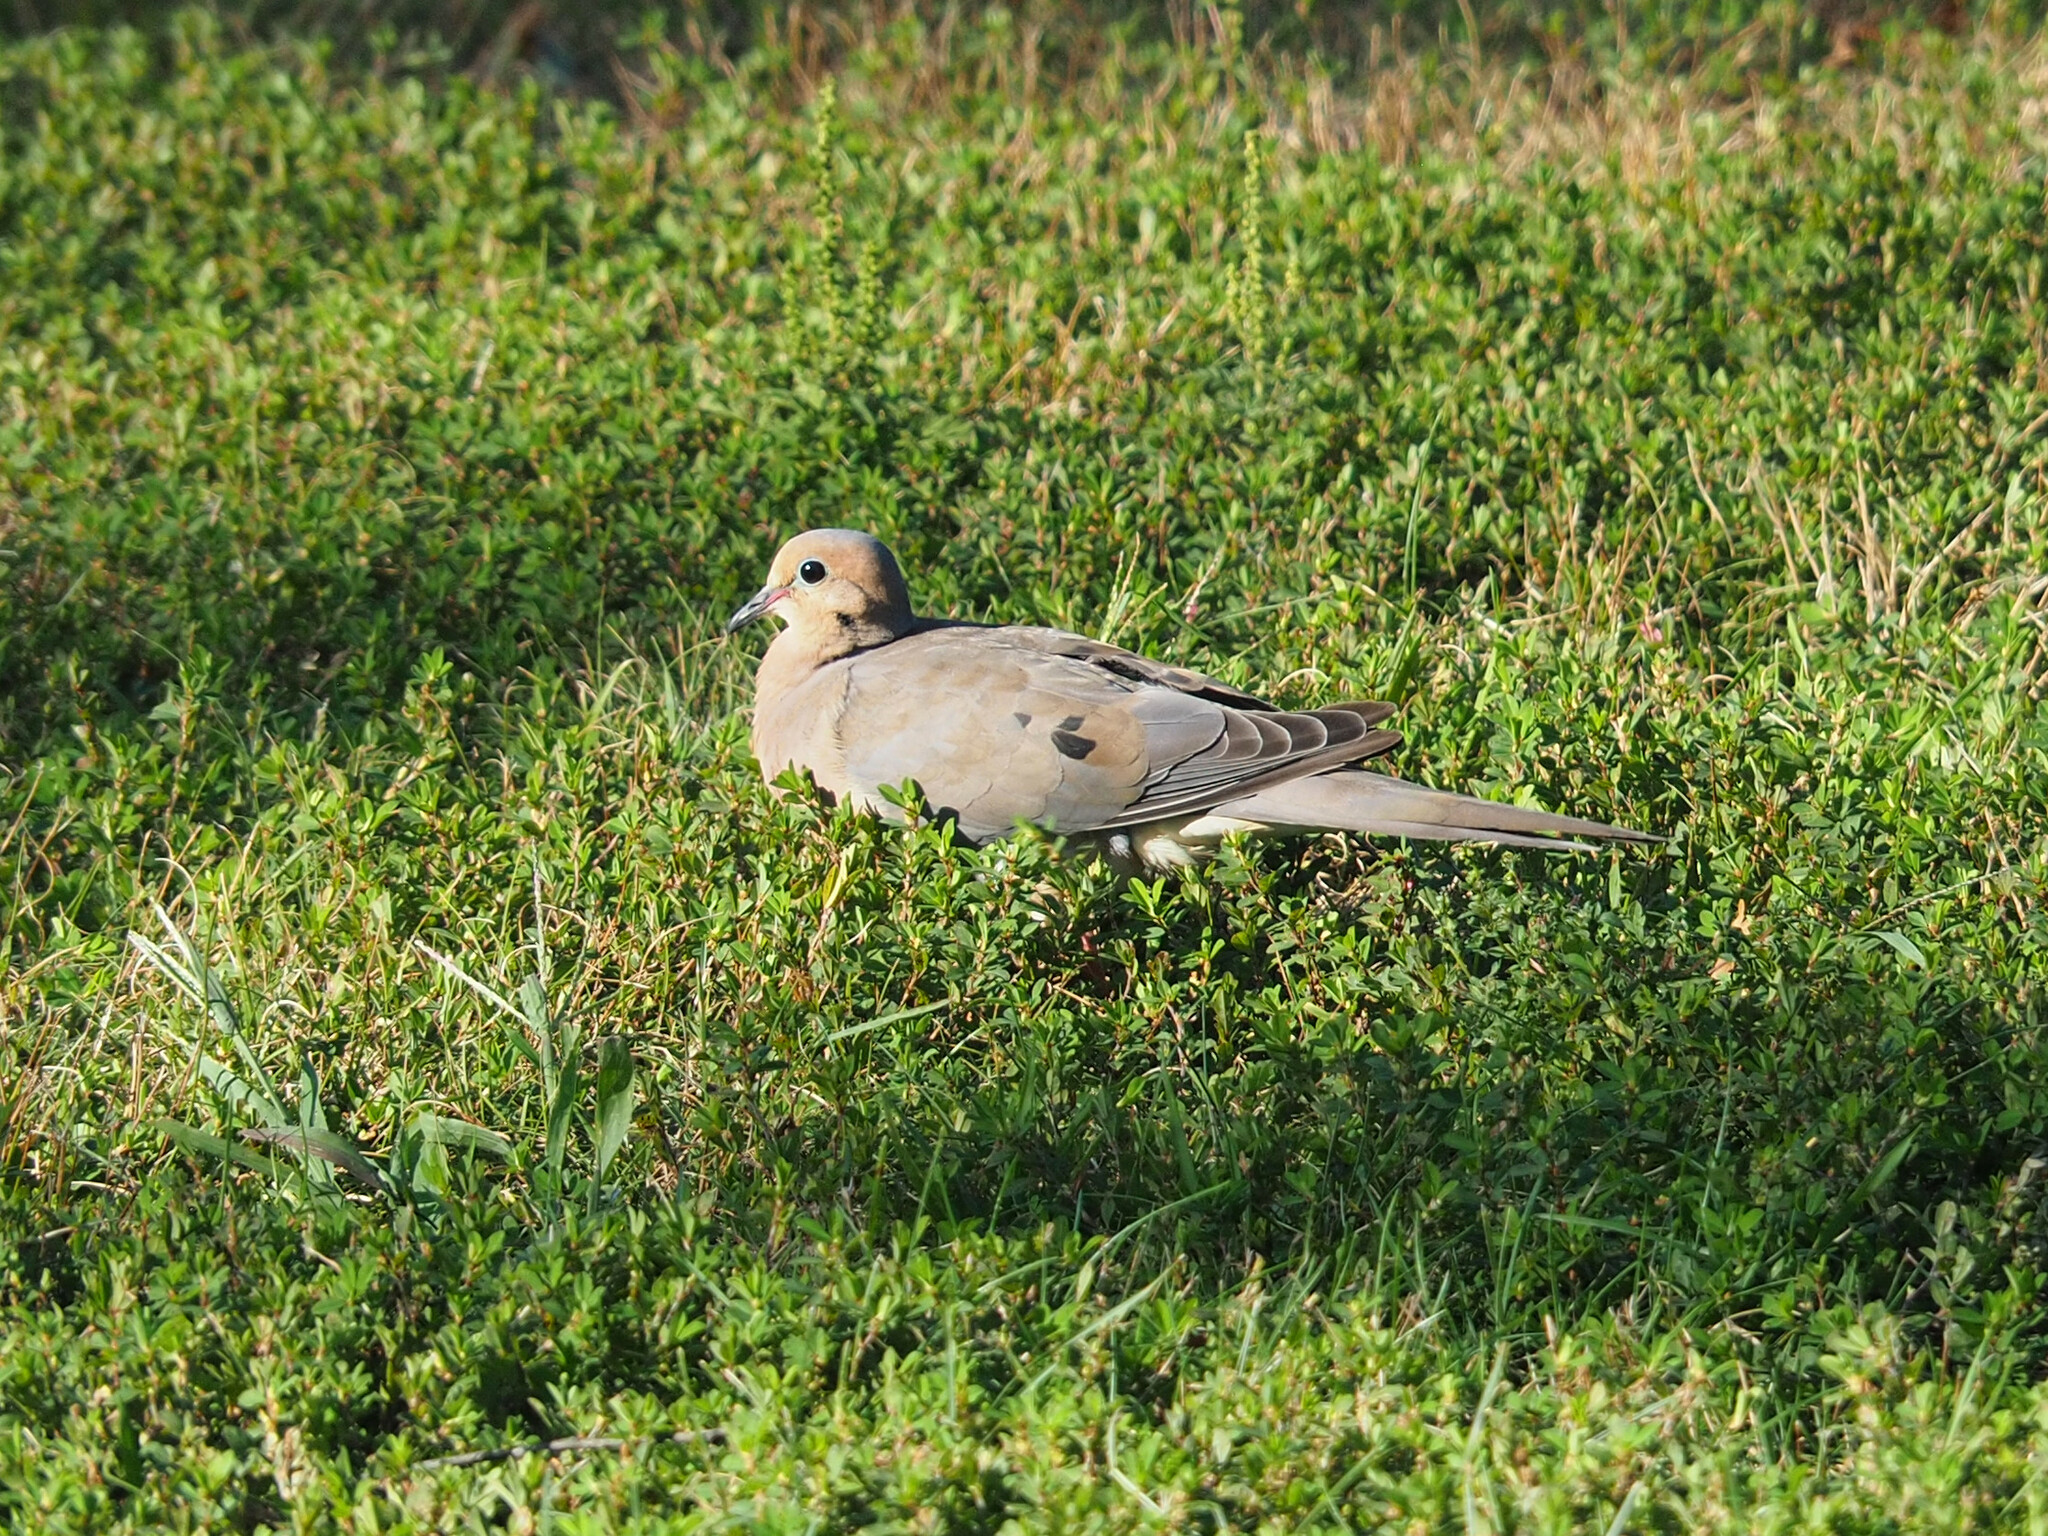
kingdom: Animalia
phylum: Chordata
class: Aves
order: Columbiformes
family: Columbidae
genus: Zenaida
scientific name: Zenaida macroura
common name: Mourning dove
